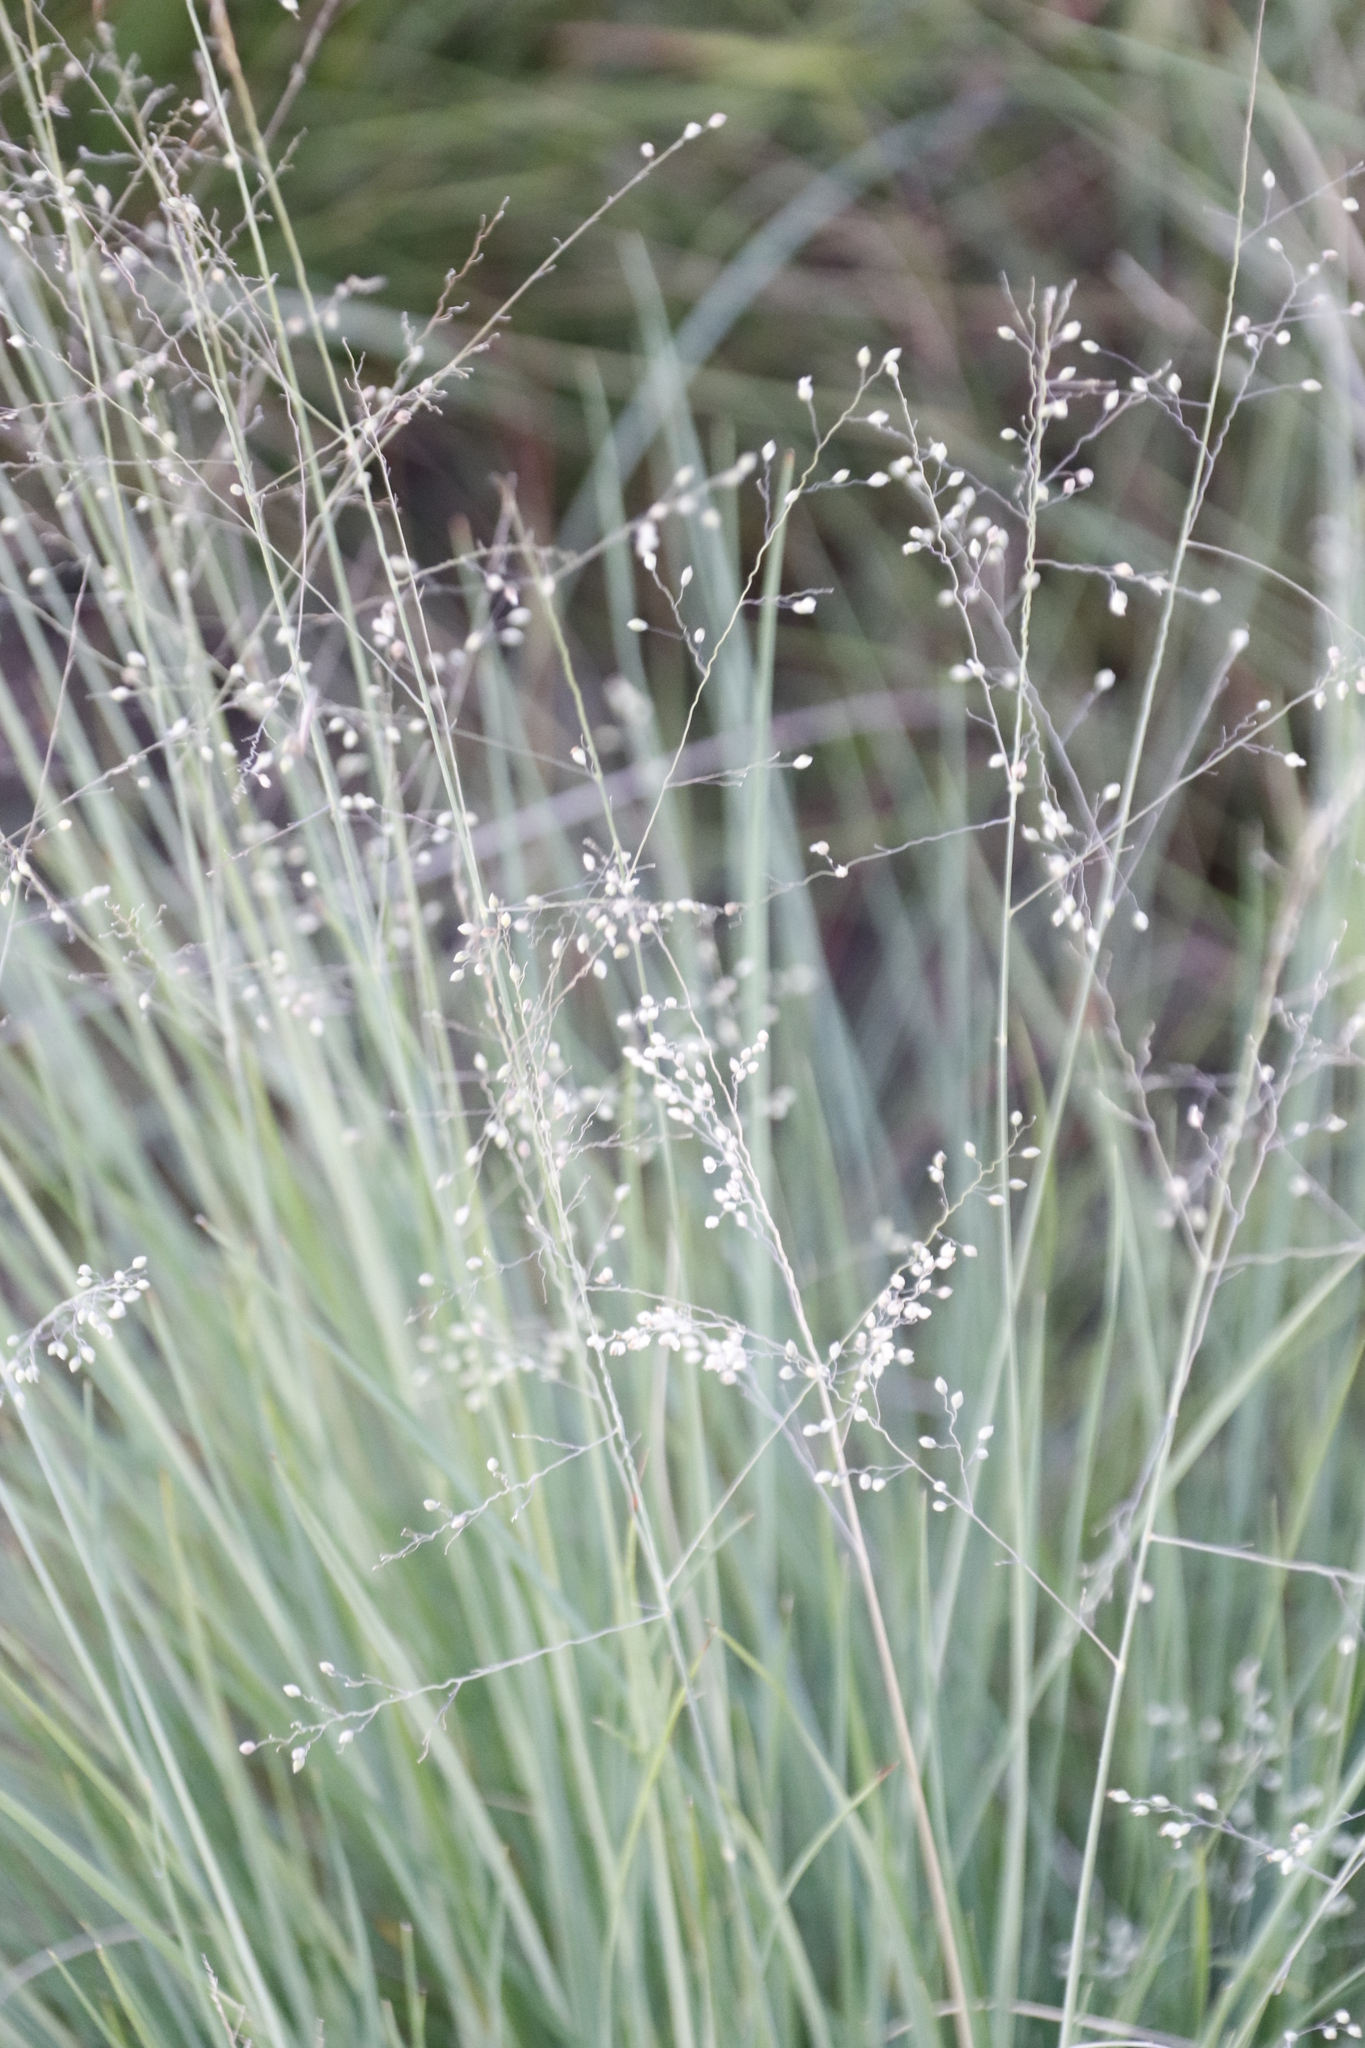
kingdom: Plantae
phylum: Tracheophyta
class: Liliopsida
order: Poales
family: Poaceae
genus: Trichanthecium
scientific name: Trichanthecium natalense
